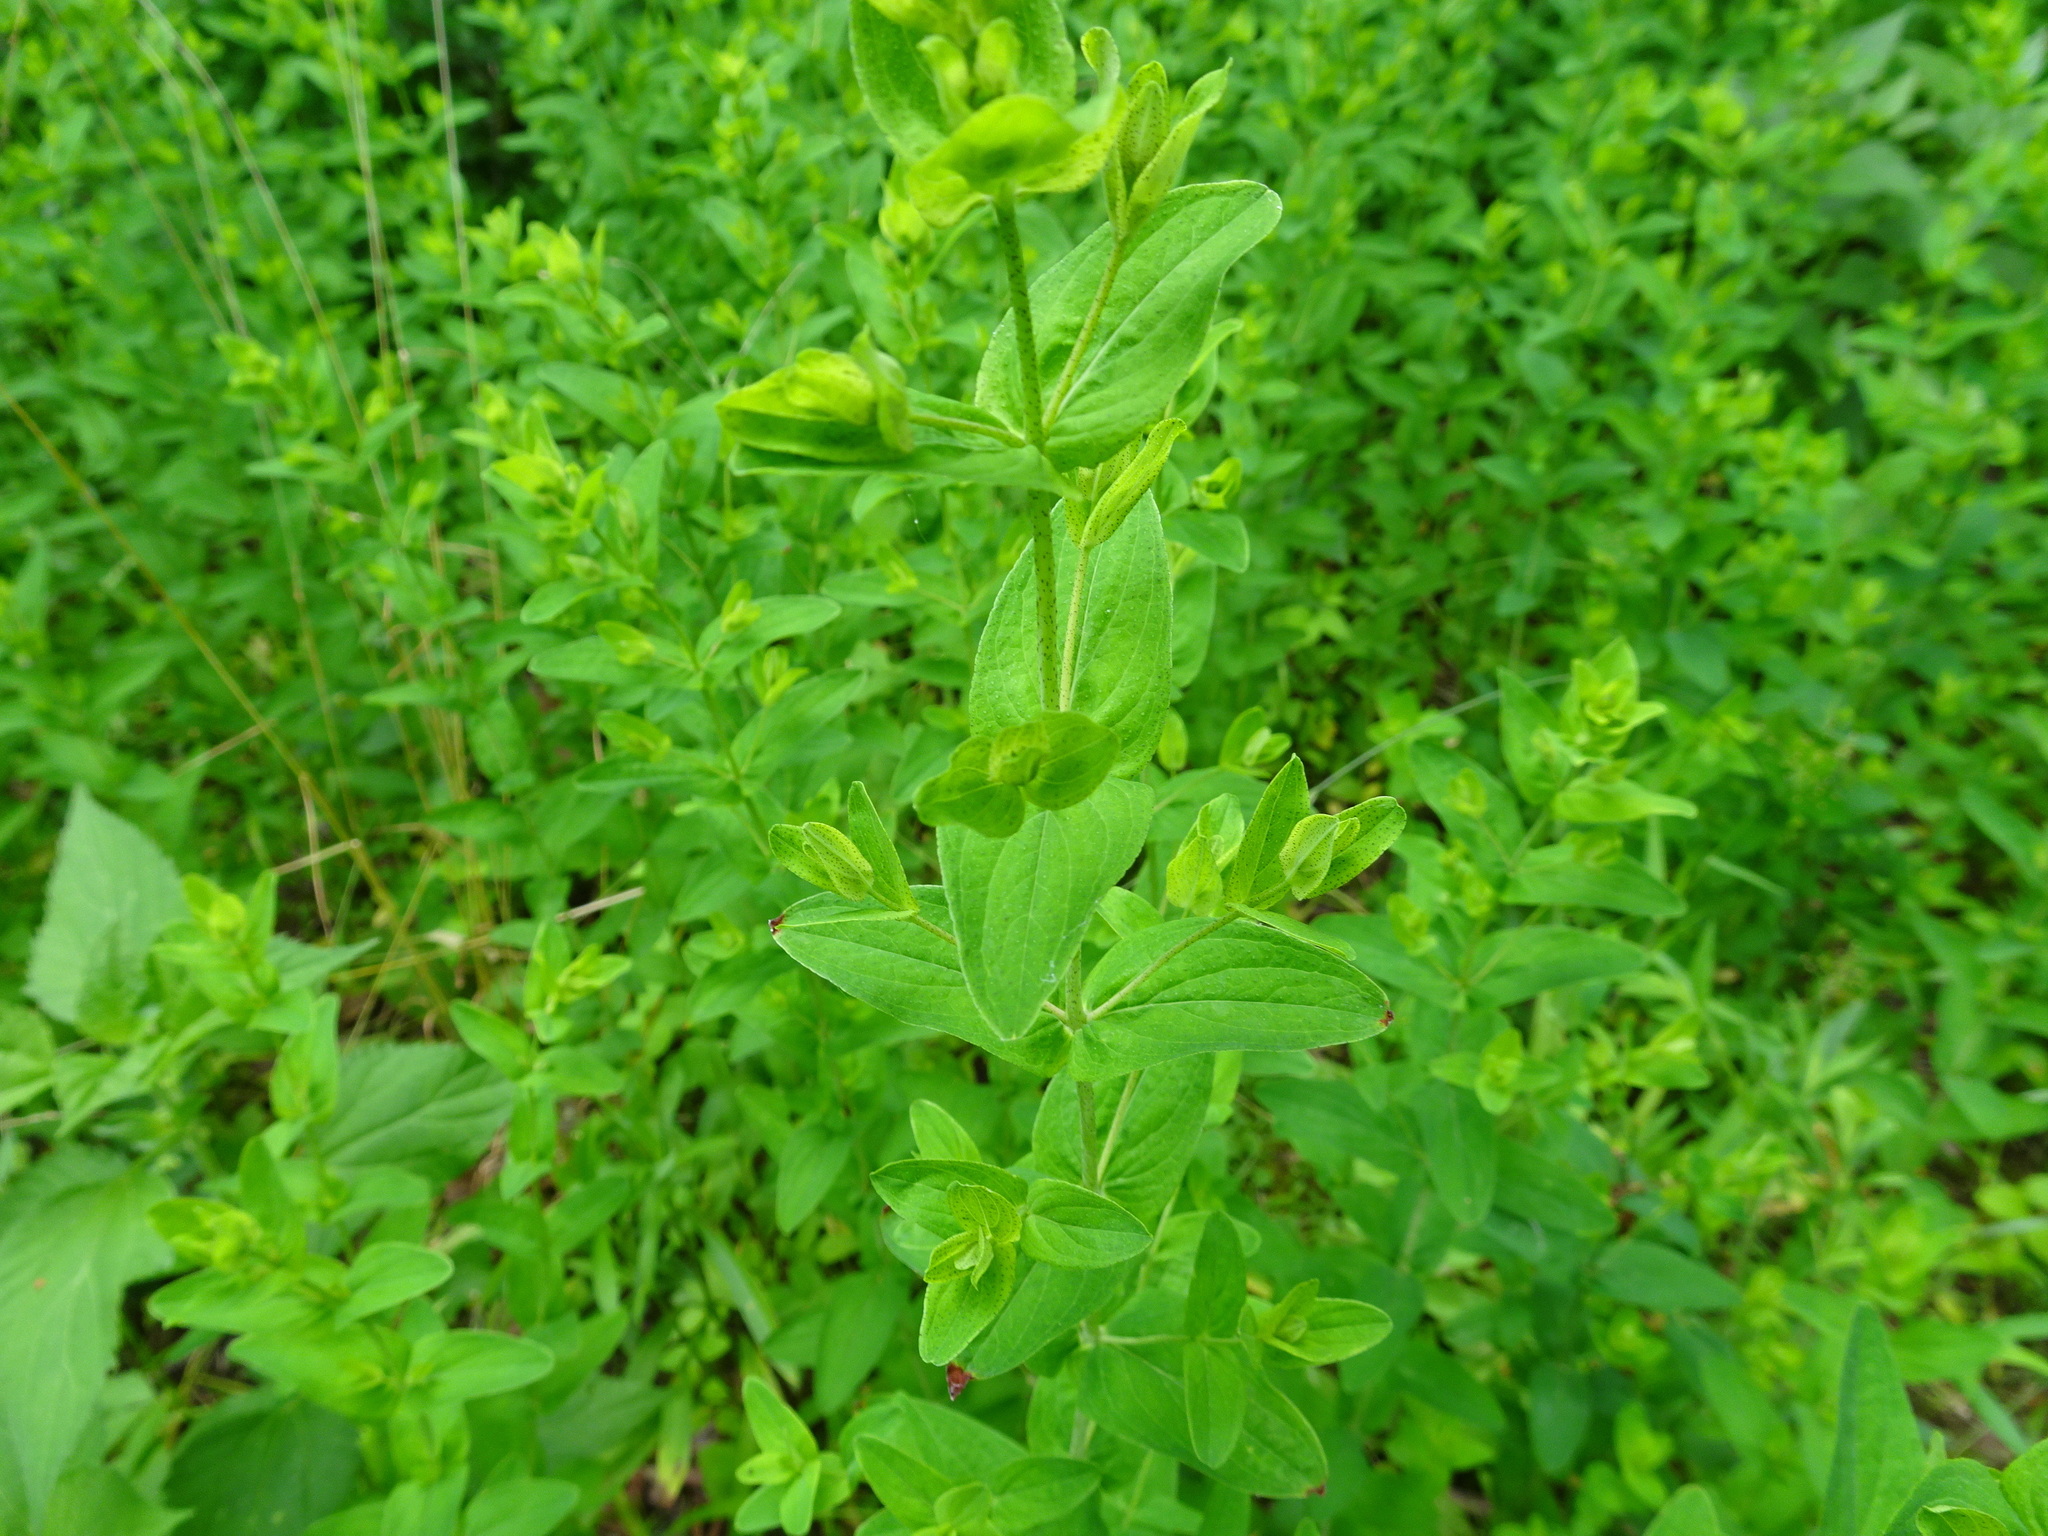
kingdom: Plantae
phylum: Tracheophyta
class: Magnoliopsida
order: Malpighiales
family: Hypericaceae
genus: Hypericum
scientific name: Hypericum punctatum
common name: Spotted st. john's-wort
